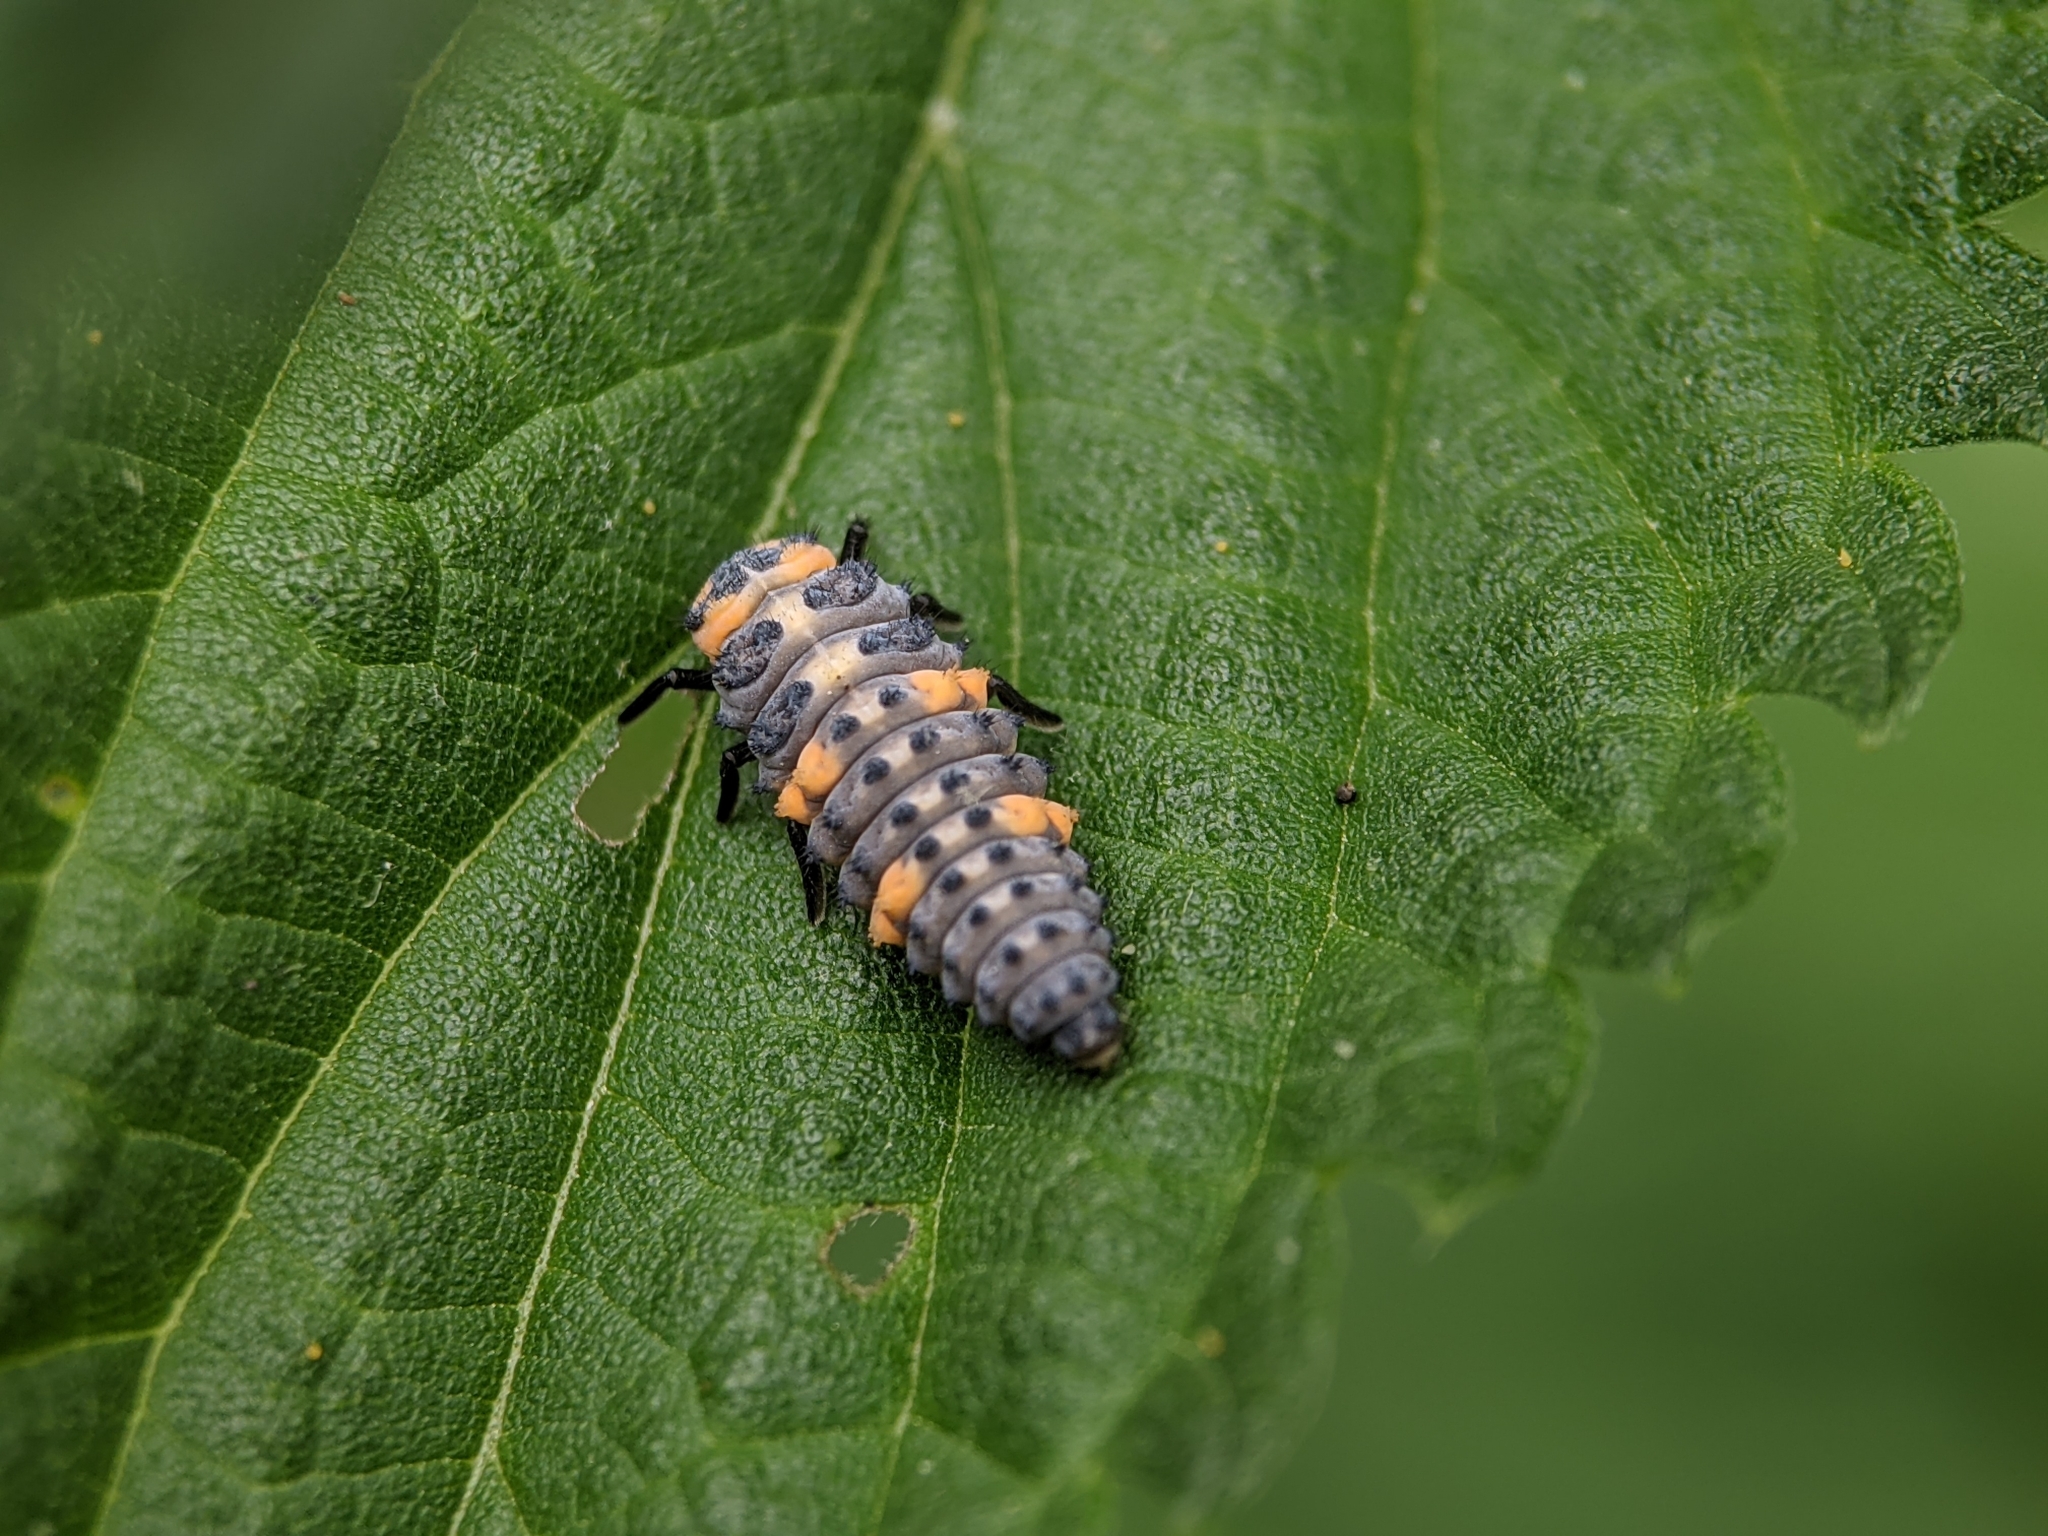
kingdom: Animalia
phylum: Arthropoda
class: Insecta
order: Coleoptera
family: Coccinellidae
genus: Coccinella
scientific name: Coccinella septempunctata
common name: Sevenspotted lady beetle
